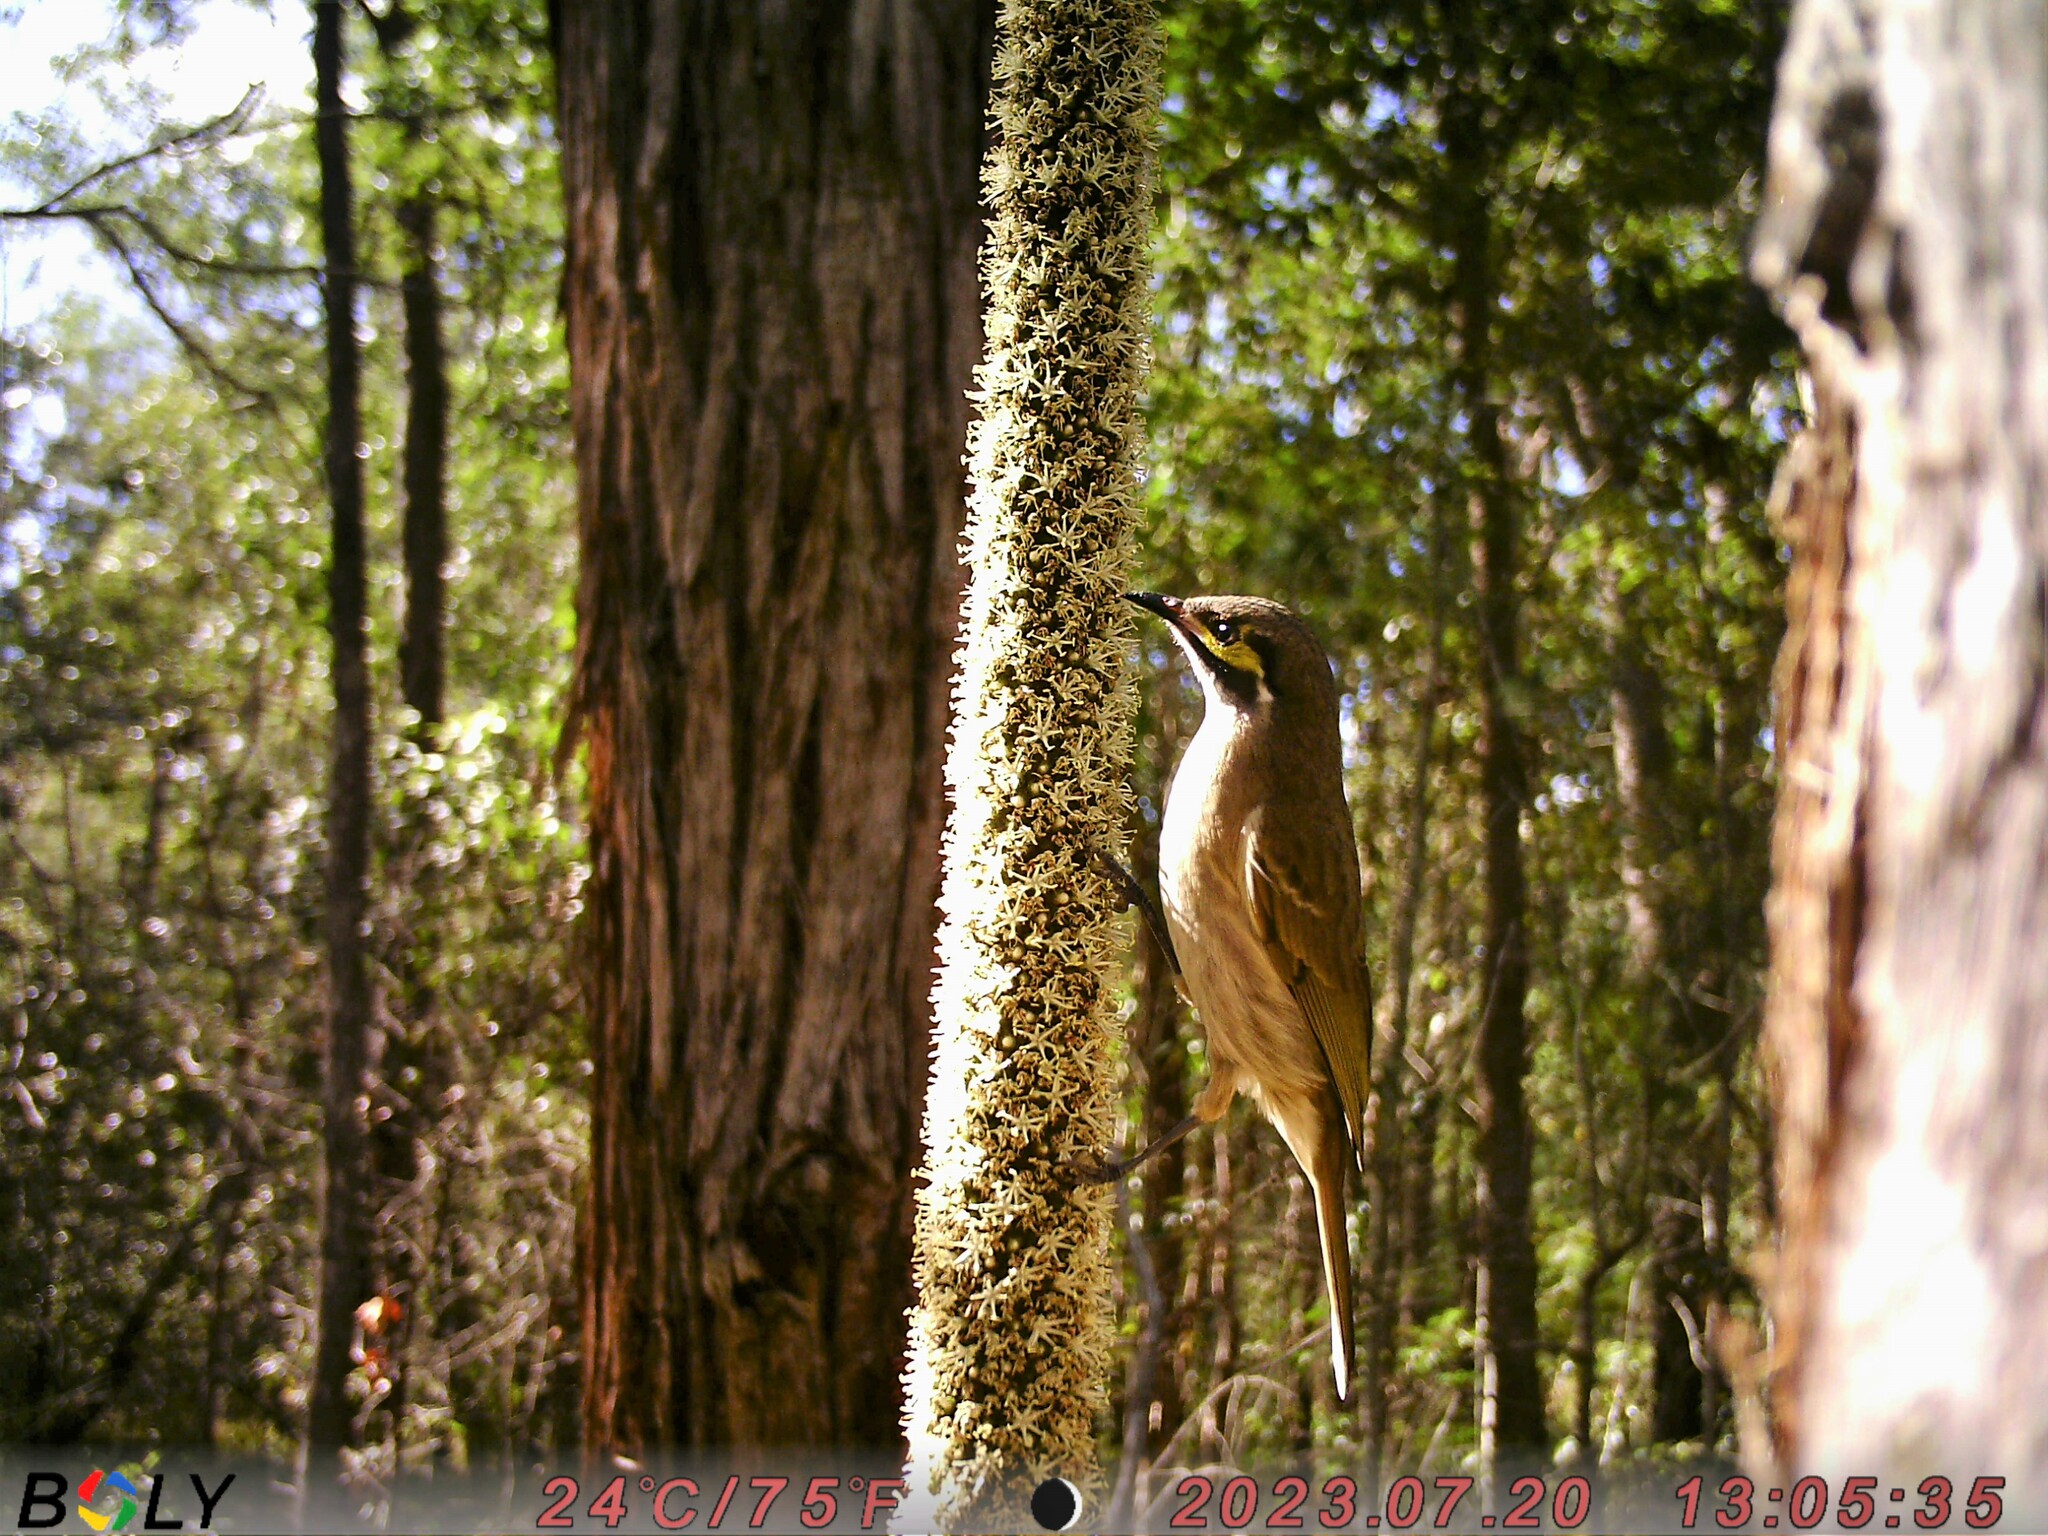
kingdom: Animalia
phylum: Chordata
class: Aves
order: Passeriformes
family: Meliphagidae
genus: Caligavis
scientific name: Caligavis chrysops
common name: Yellow-faced honeyeater
